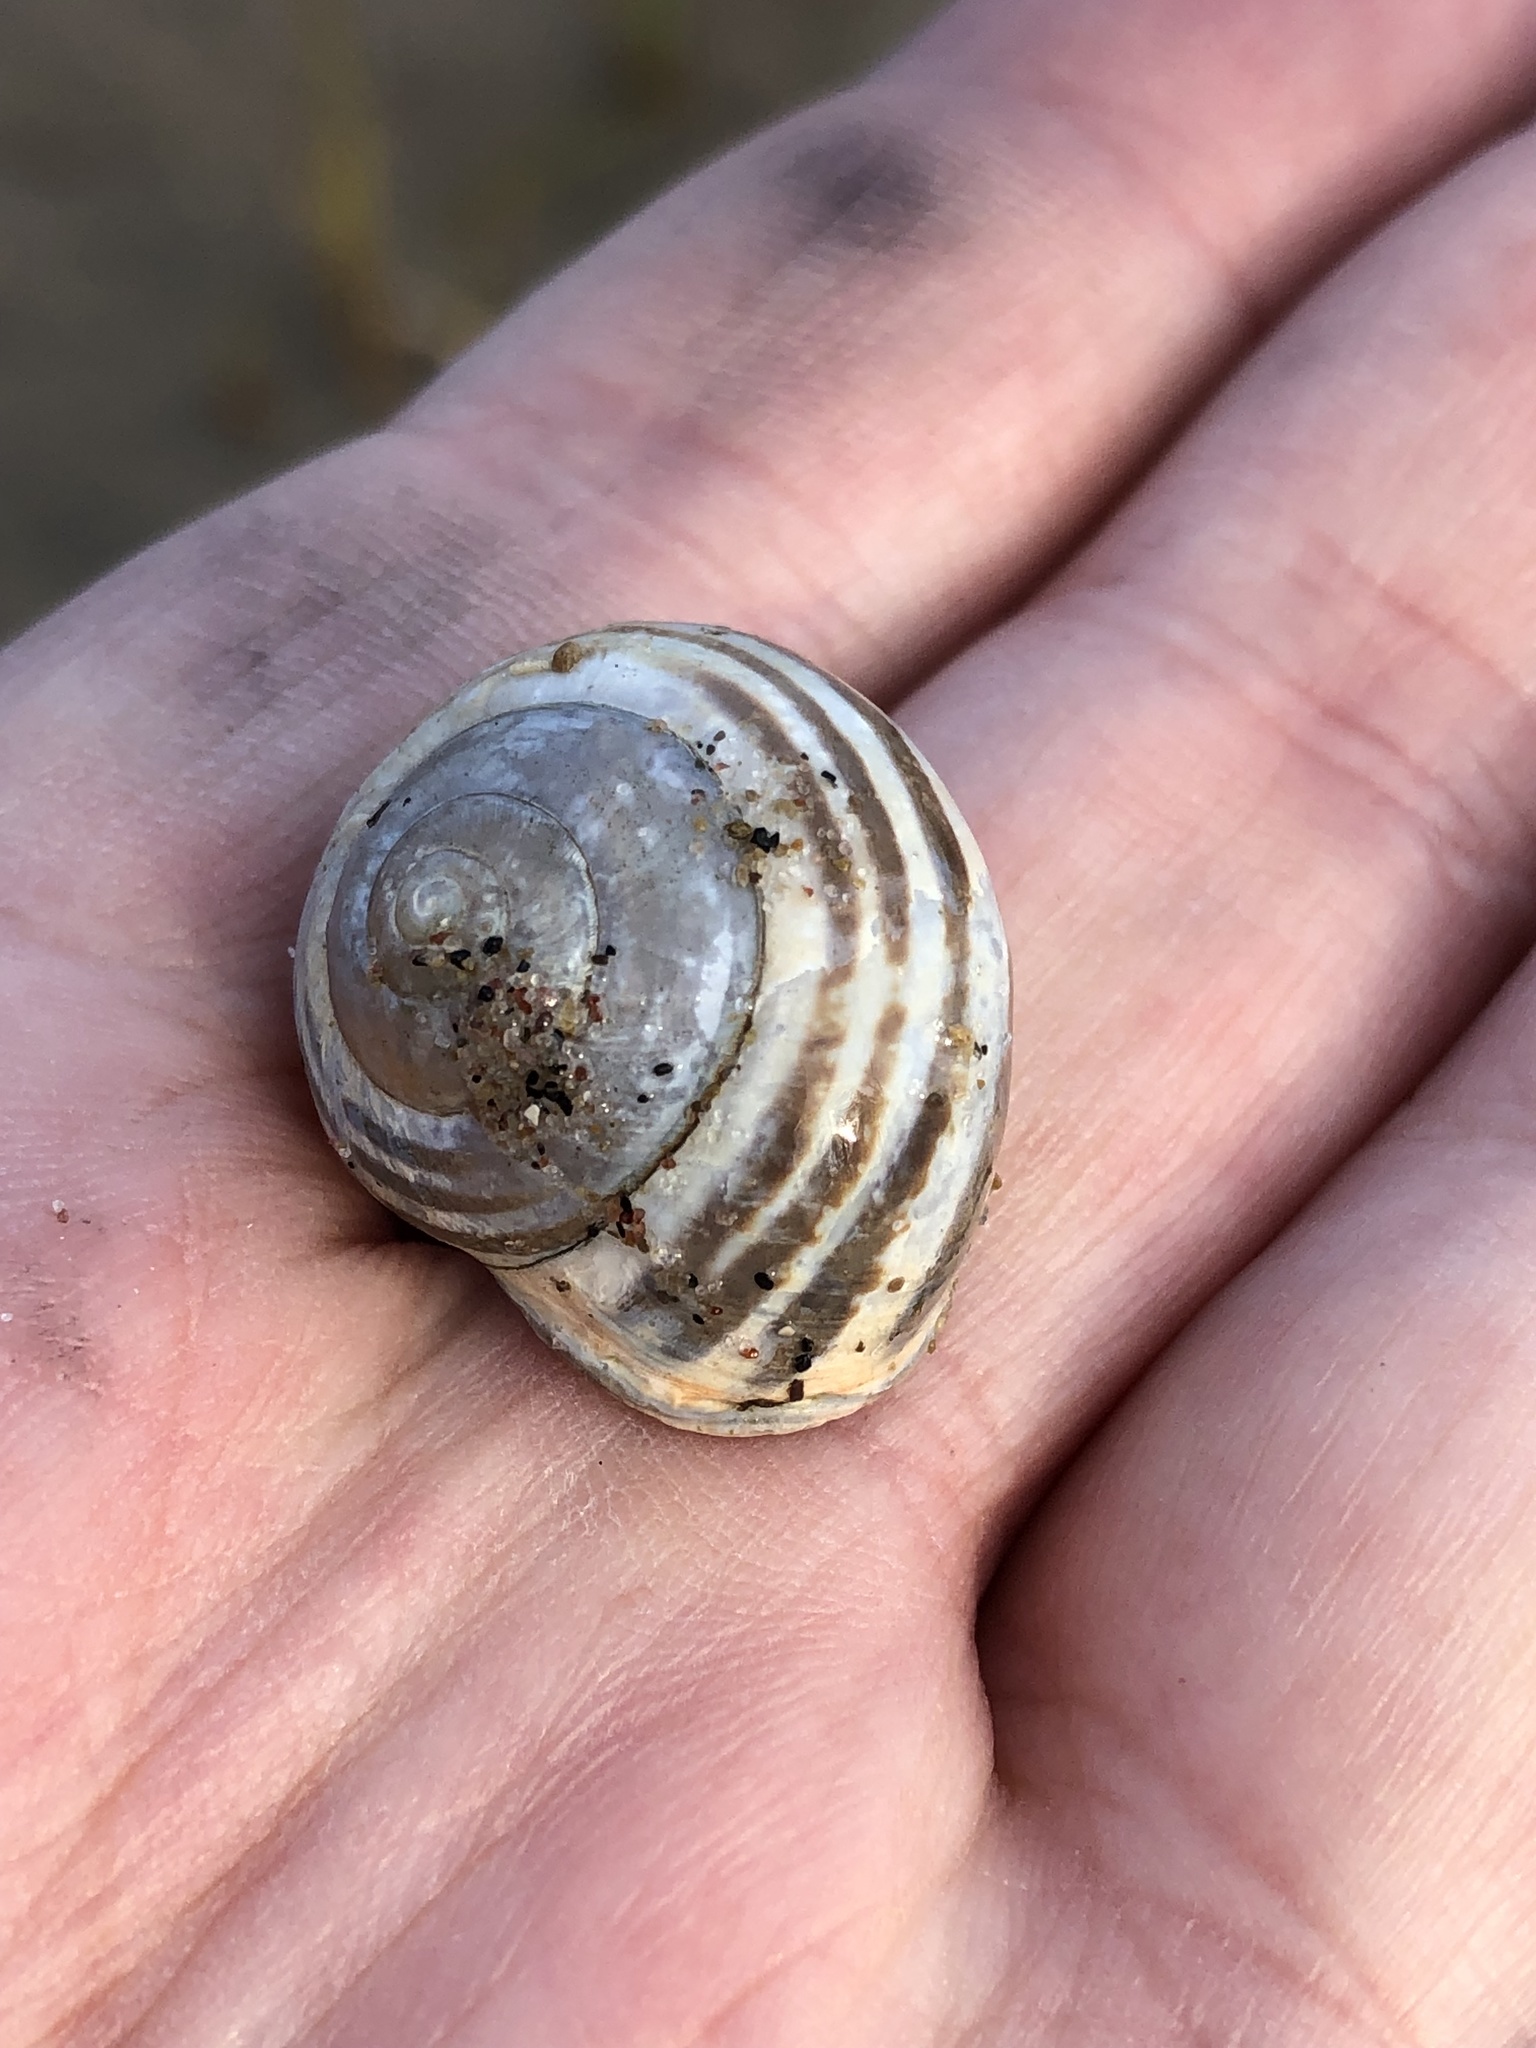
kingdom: Animalia
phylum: Mollusca
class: Gastropoda
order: Stylommatophora
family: Helicidae
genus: Cepaea
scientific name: Cepaea nemoralis
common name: Grovesnail
